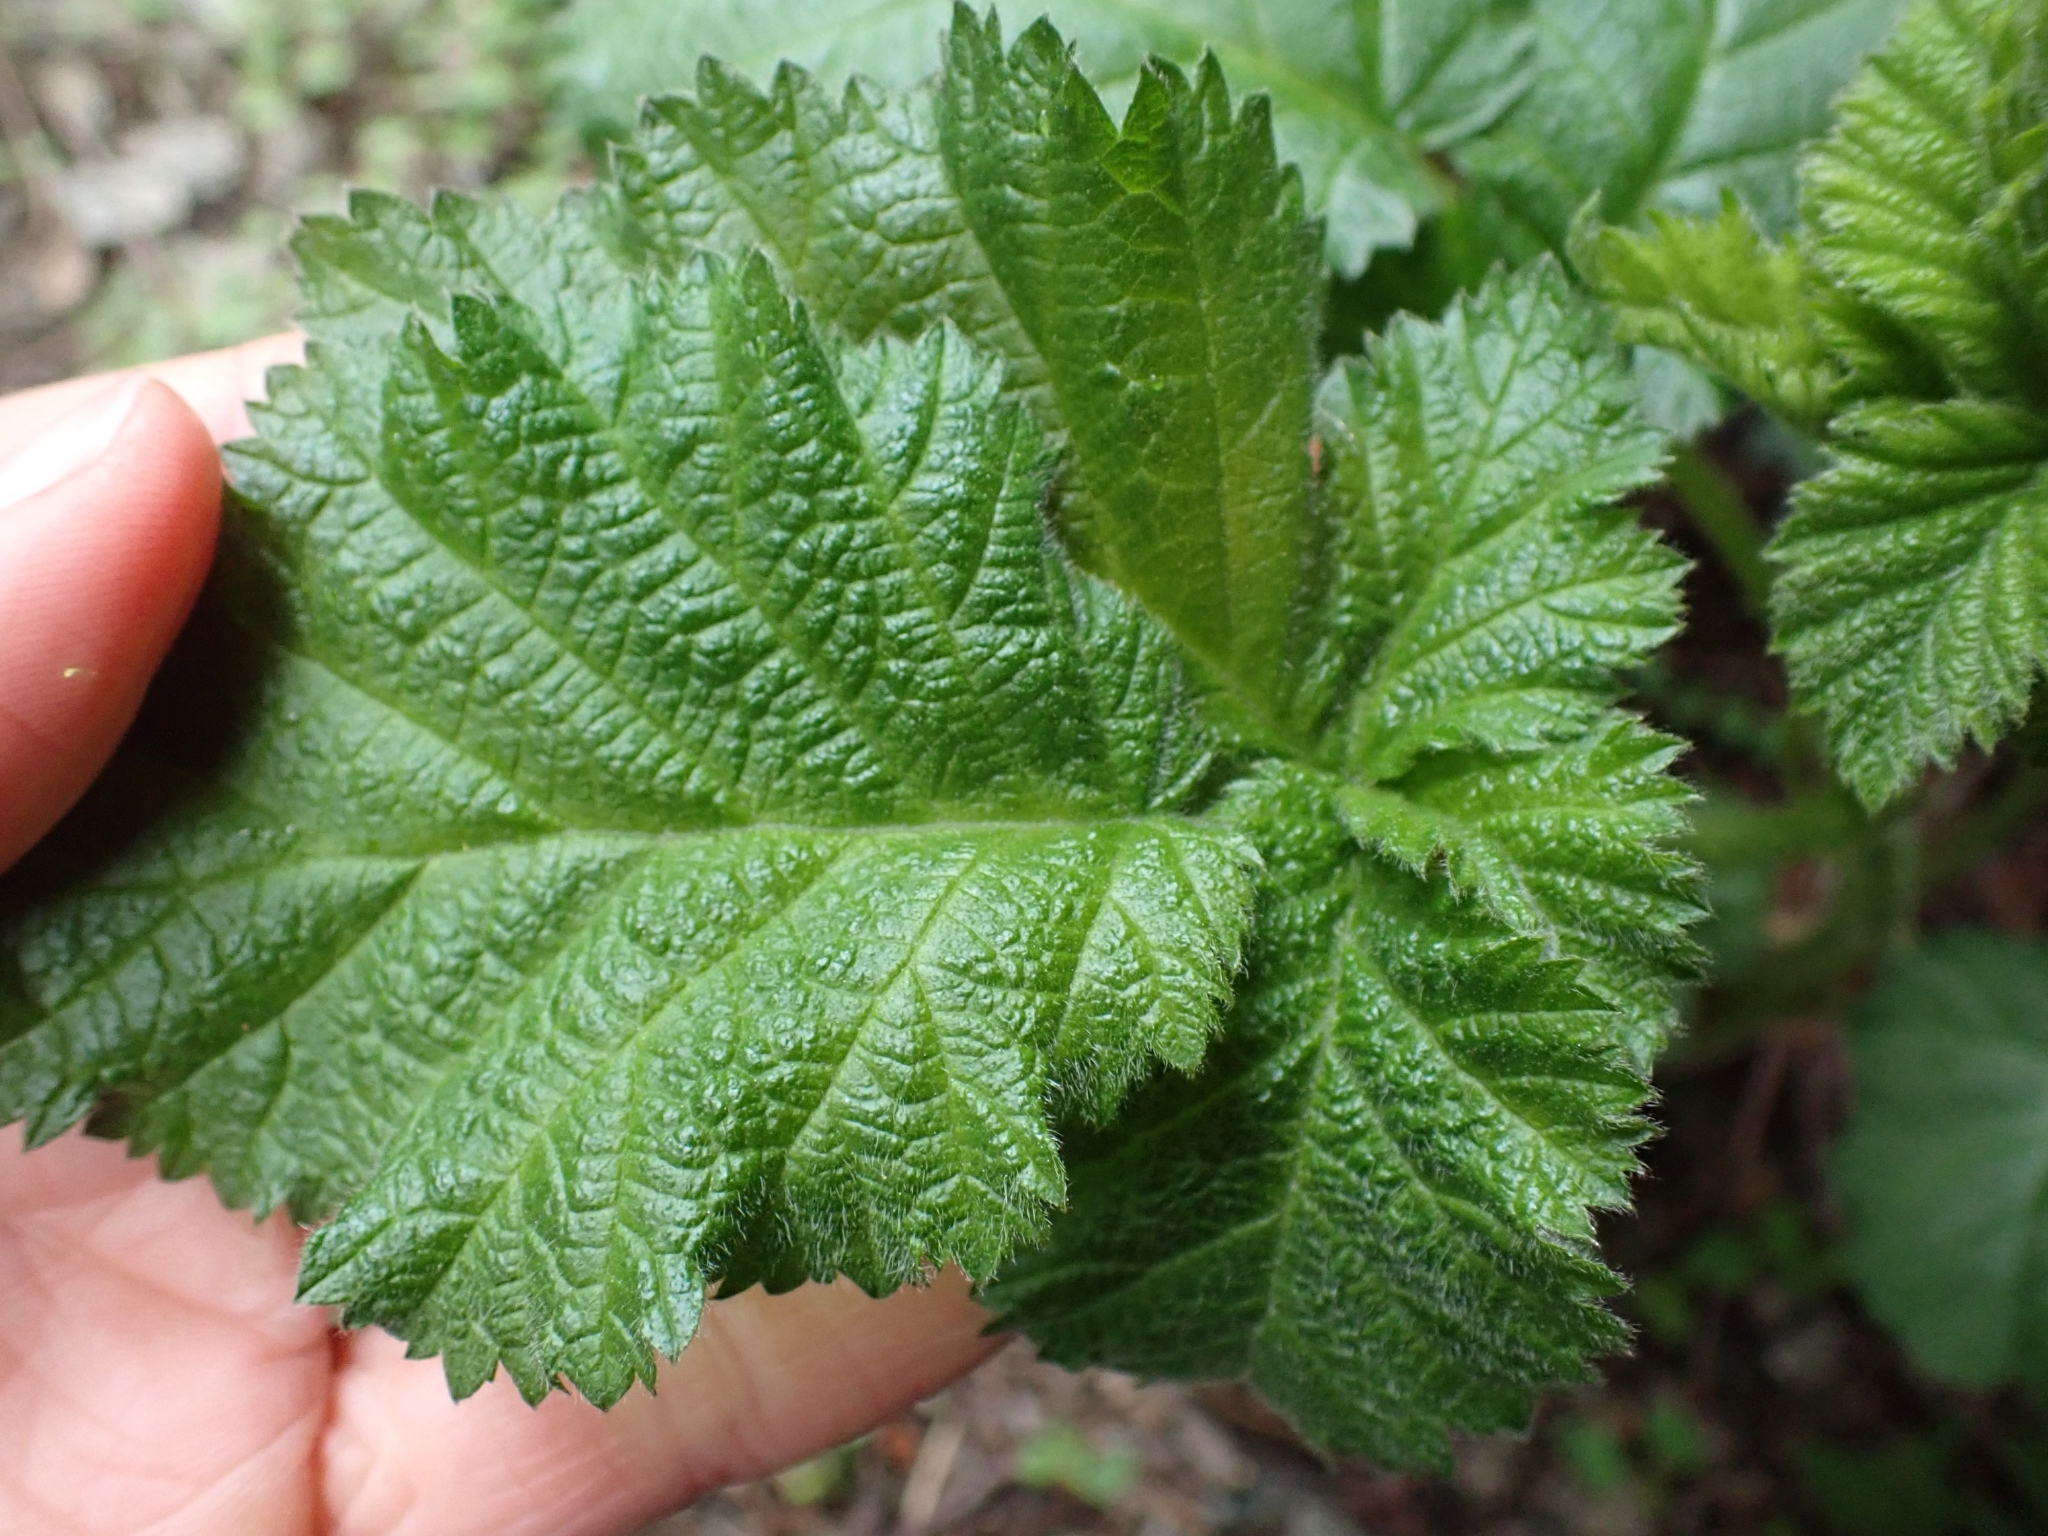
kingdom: Plantae
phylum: Tracheophyta
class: Magnoliopsida
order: Rosales
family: Rosaceae
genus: Rubus
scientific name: Rubus armeniacus
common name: Himalayan blackberry
